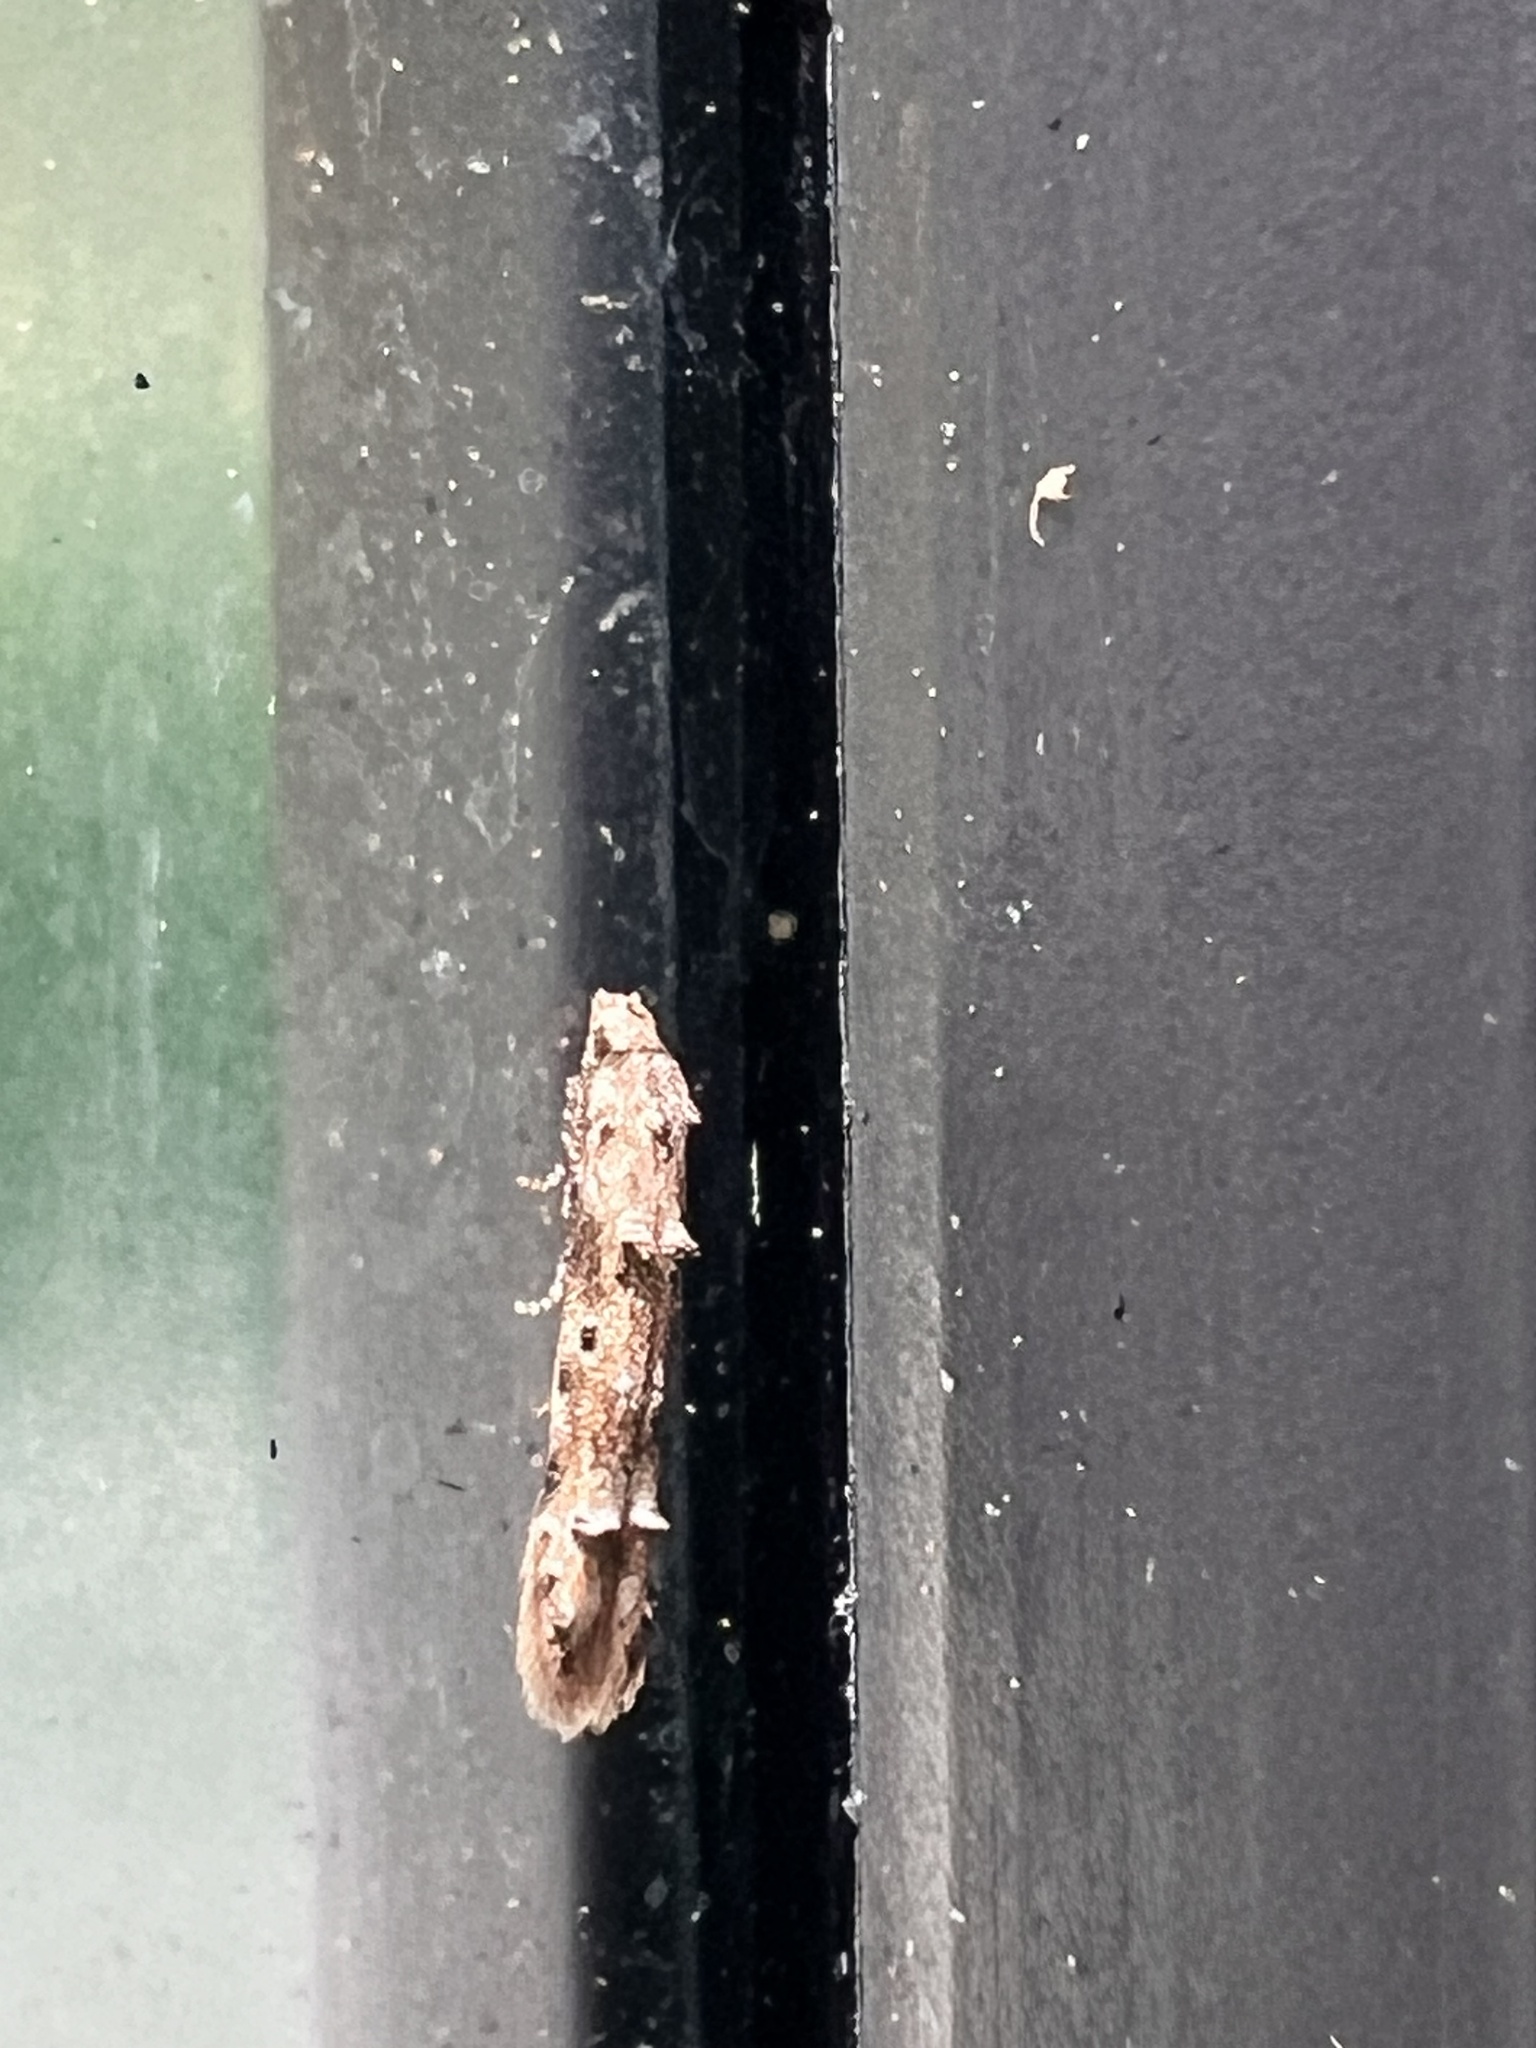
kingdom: Animalia
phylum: Arthropoda
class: Insecta
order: Lepidoptera
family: Elachistidae
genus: Microcolona
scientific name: Microcolona limodes
